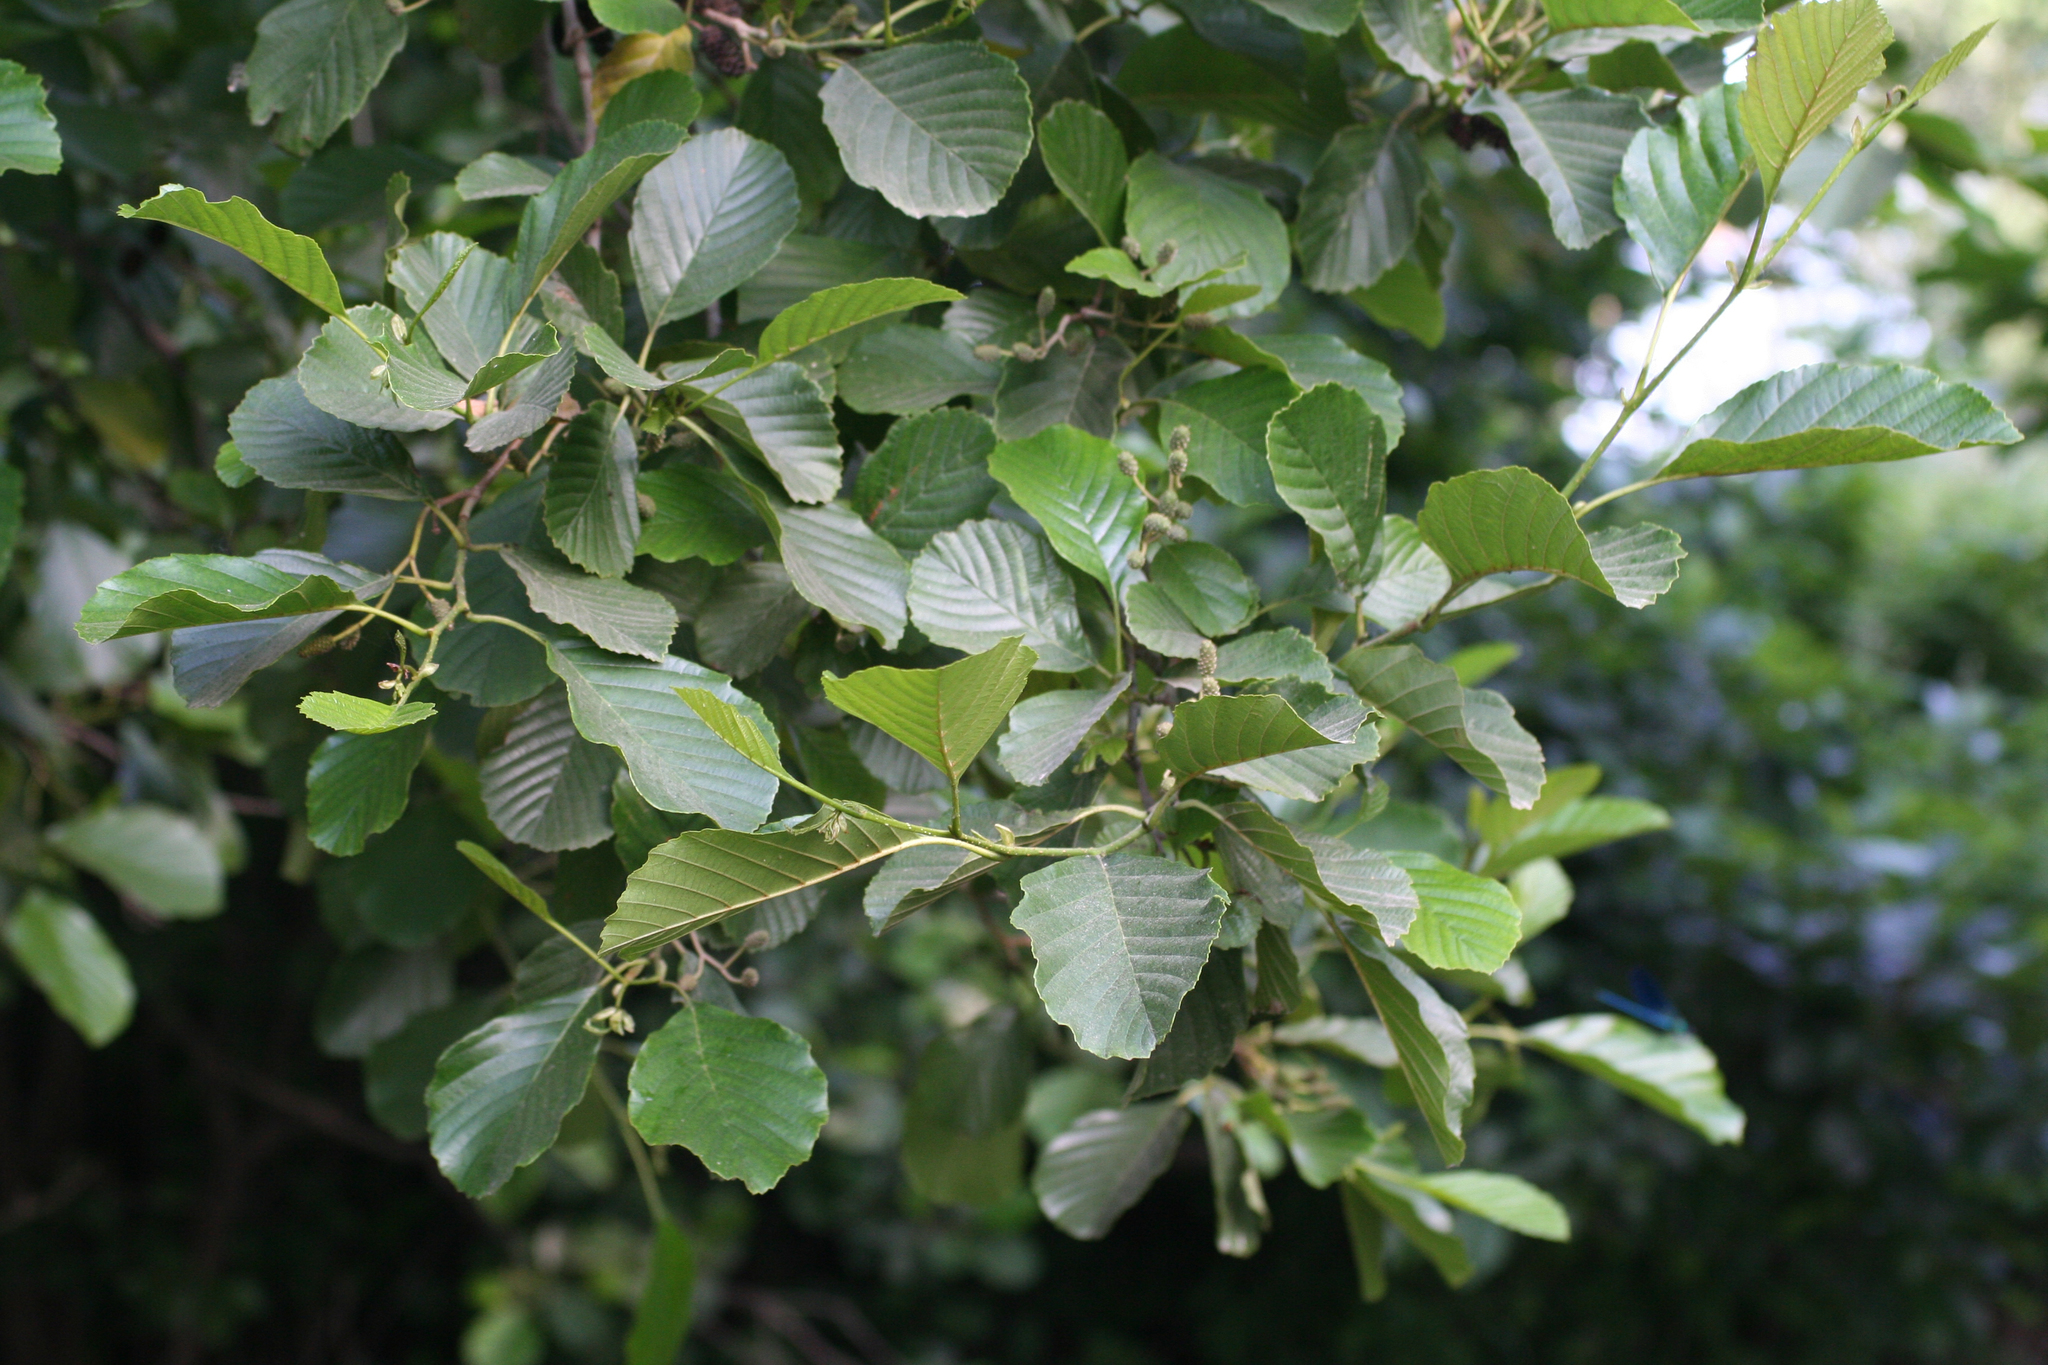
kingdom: Plantae
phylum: Tracheophyta
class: Magnoliopsida
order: Fagales
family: Betulaceae
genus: Alnus
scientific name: Alnus glutinosa
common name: Black alder
